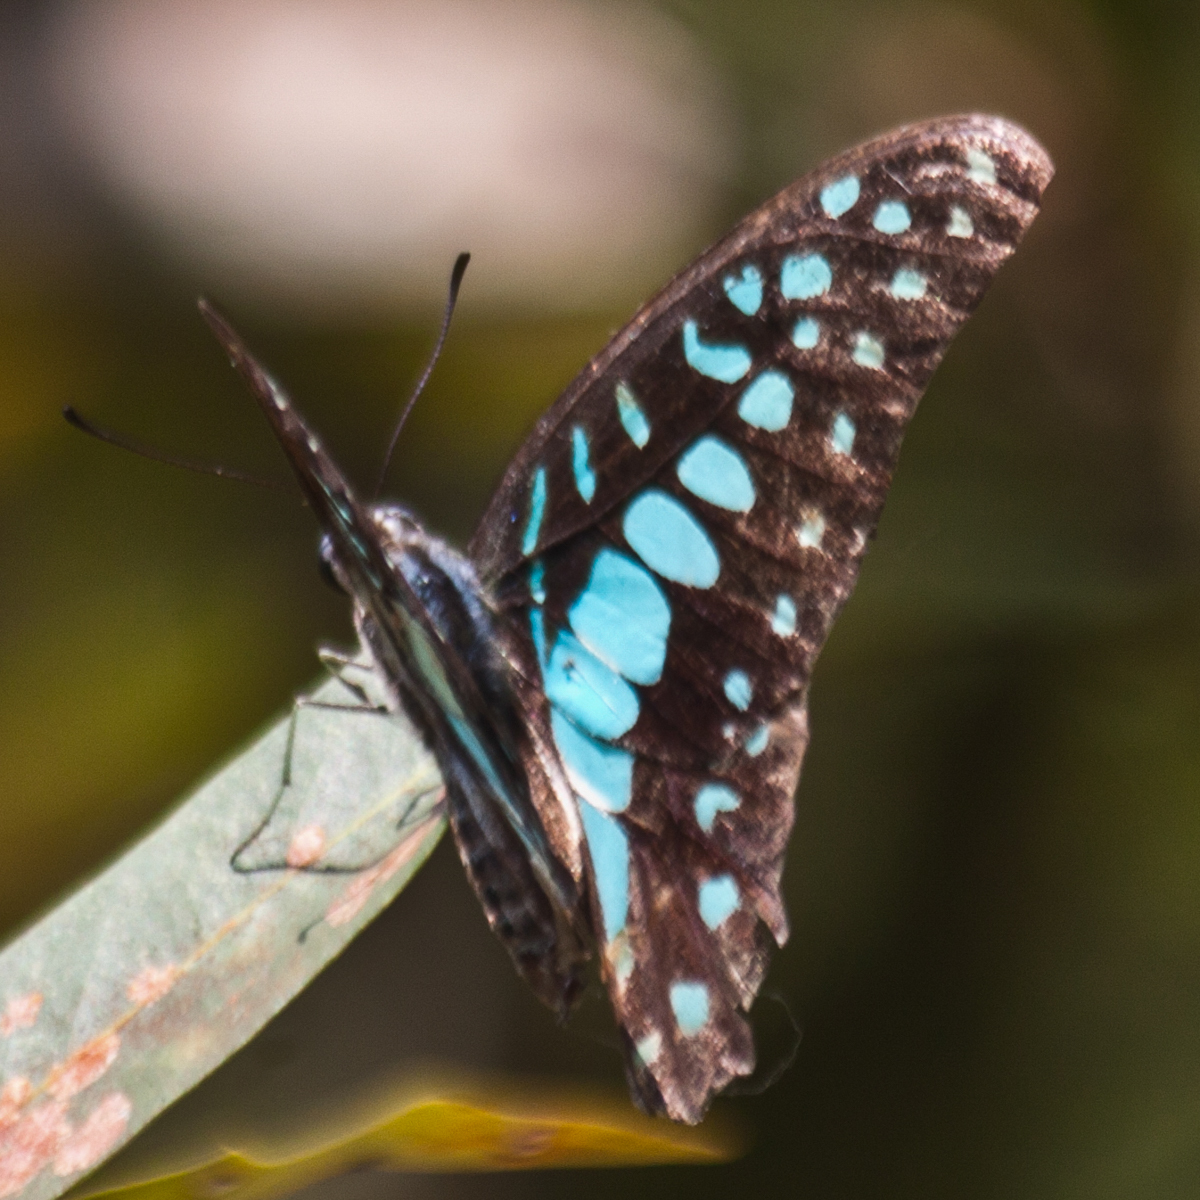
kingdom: Animalia
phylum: Arthropoda
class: Insecta
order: Lepidoptera
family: Papilionidae
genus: Graphium
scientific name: Graphium doson
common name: Common jay
